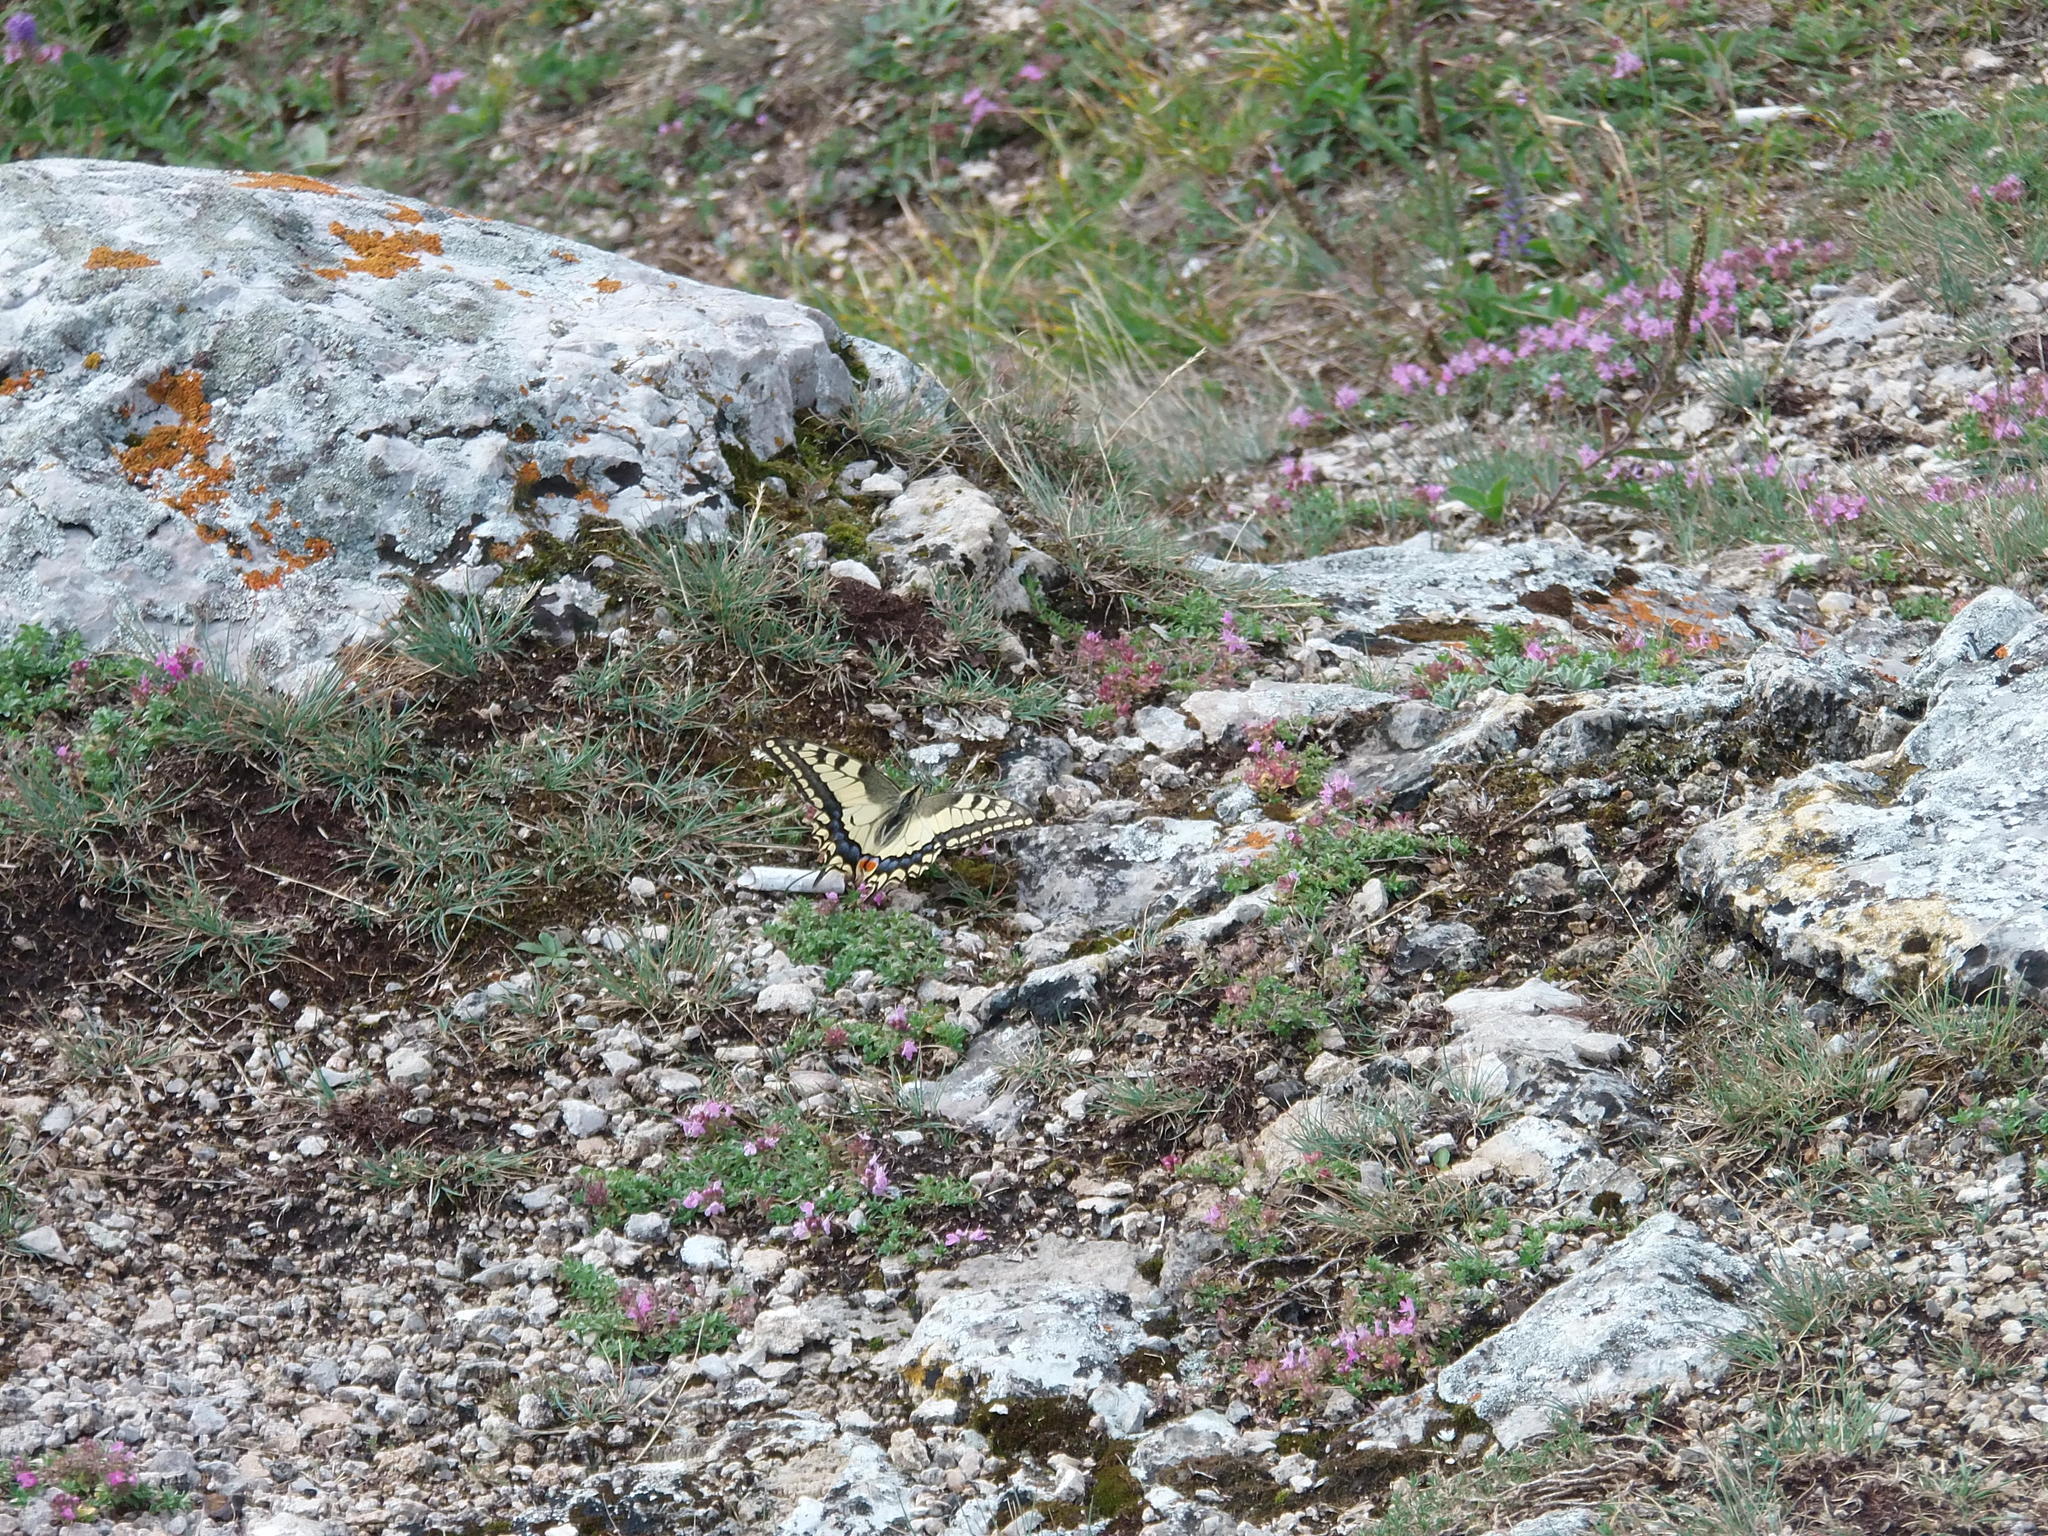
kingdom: Animalia
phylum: Arthropoda
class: Insecta
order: Lepidoptera
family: Papilionidae
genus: Papilio
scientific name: Papilio machaon
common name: Swallowtail
